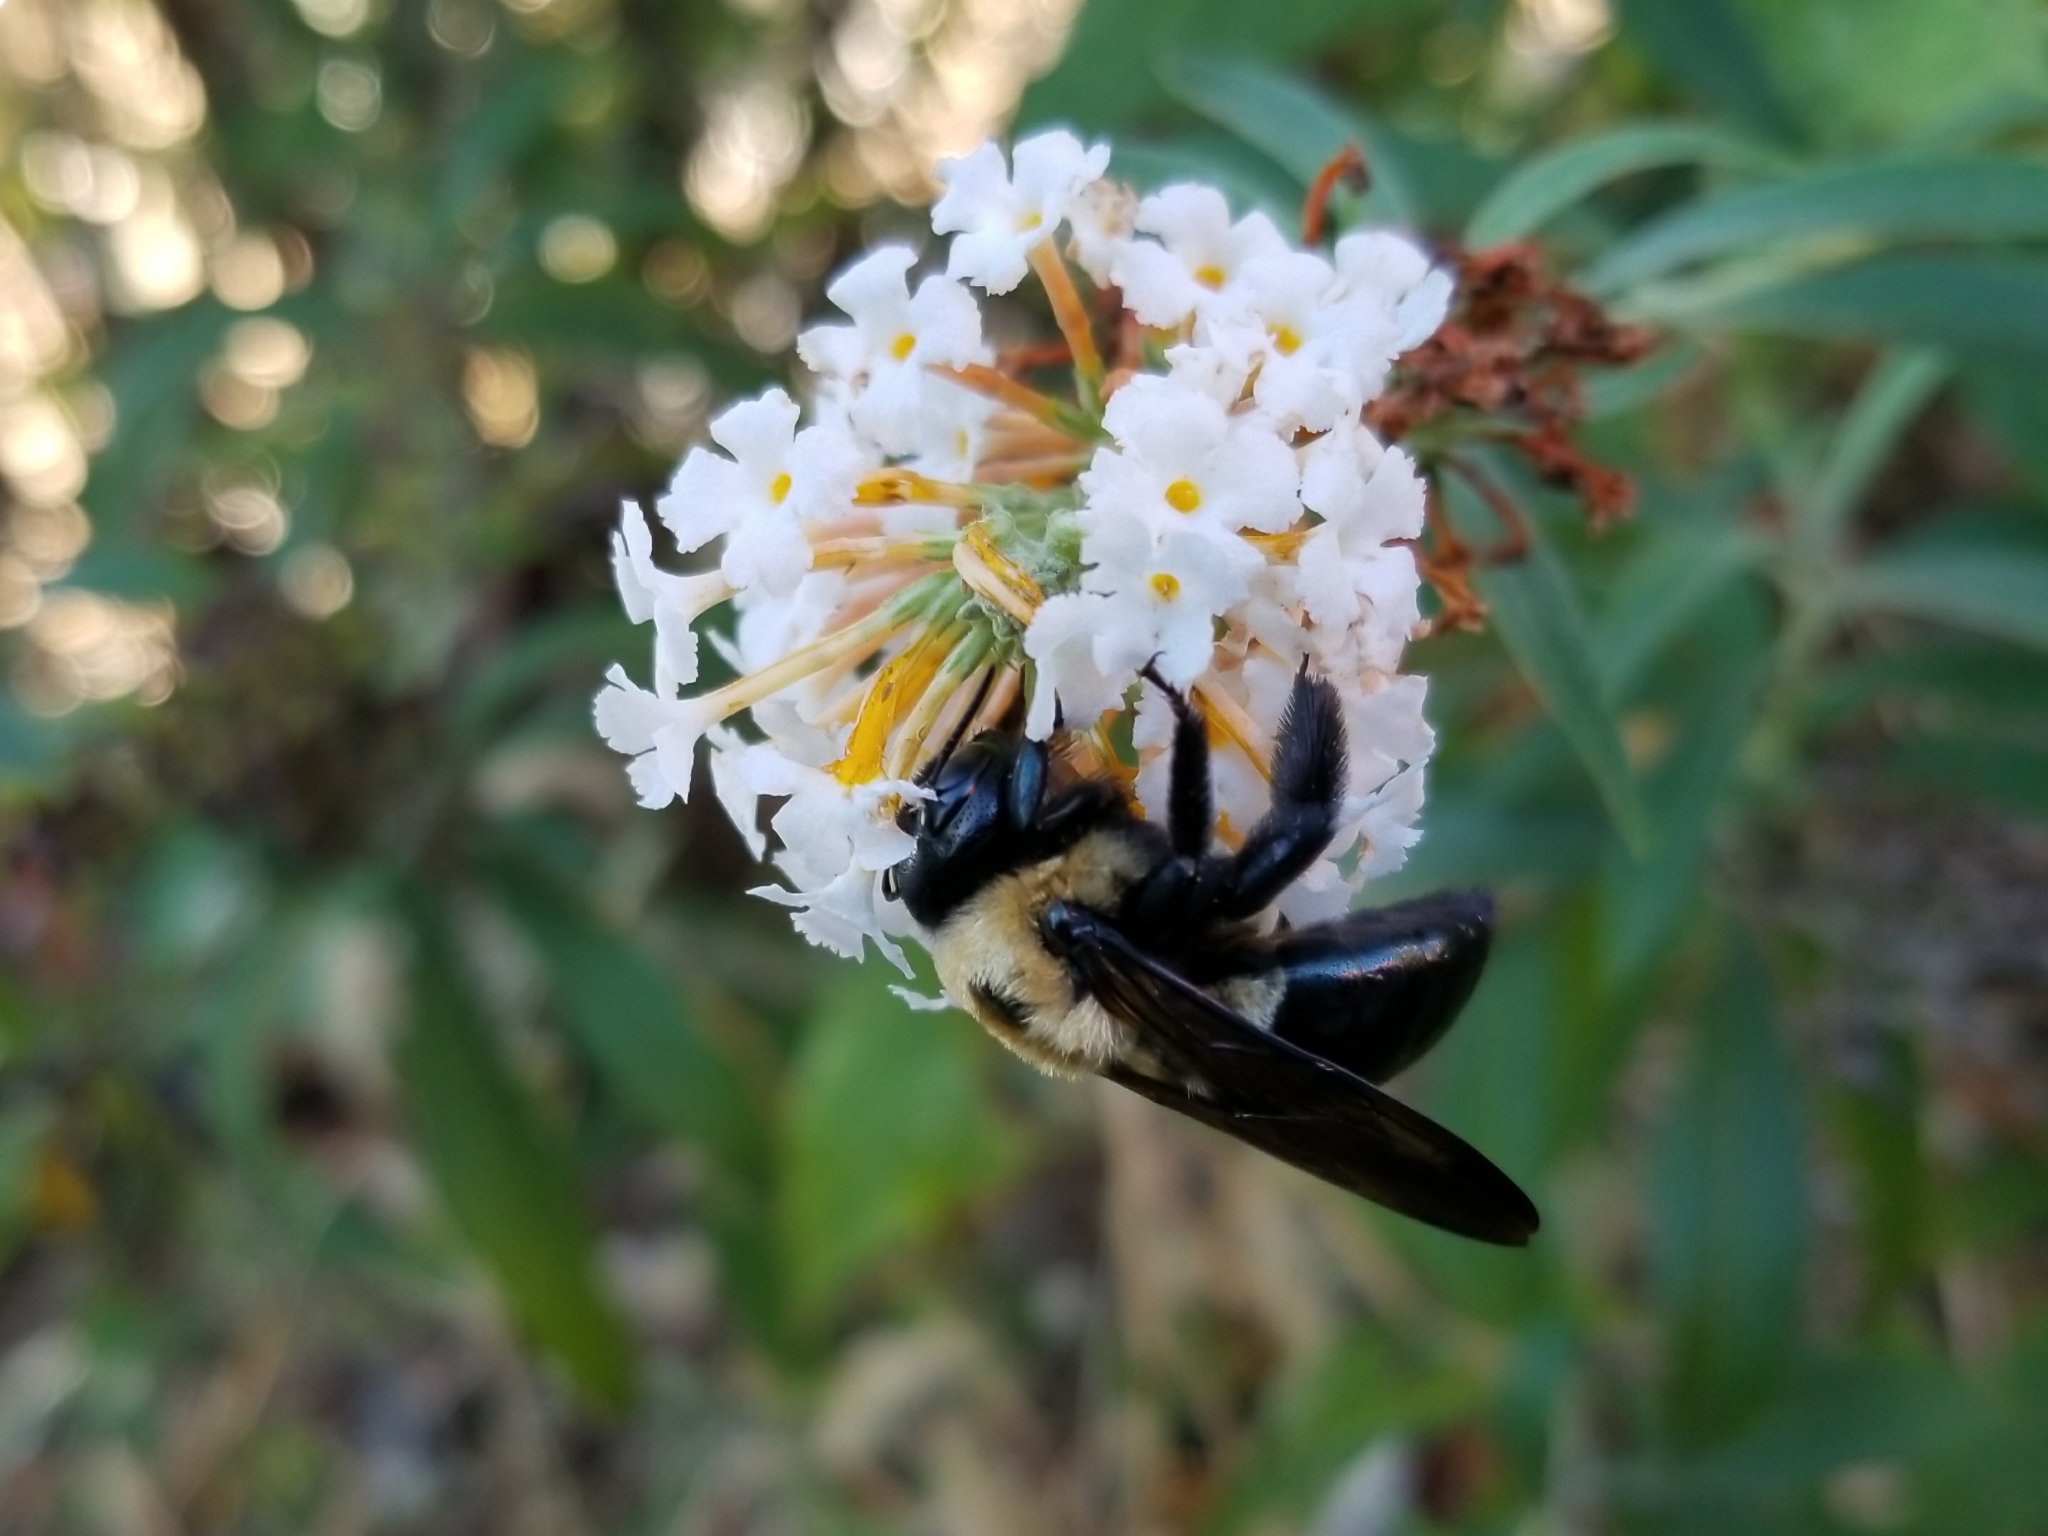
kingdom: Animalia
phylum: Arthropoda
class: Insecta
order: Hymenoptera
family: Apidae
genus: Xylocopa
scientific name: Xylocopa virginica
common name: Carpenter bee
